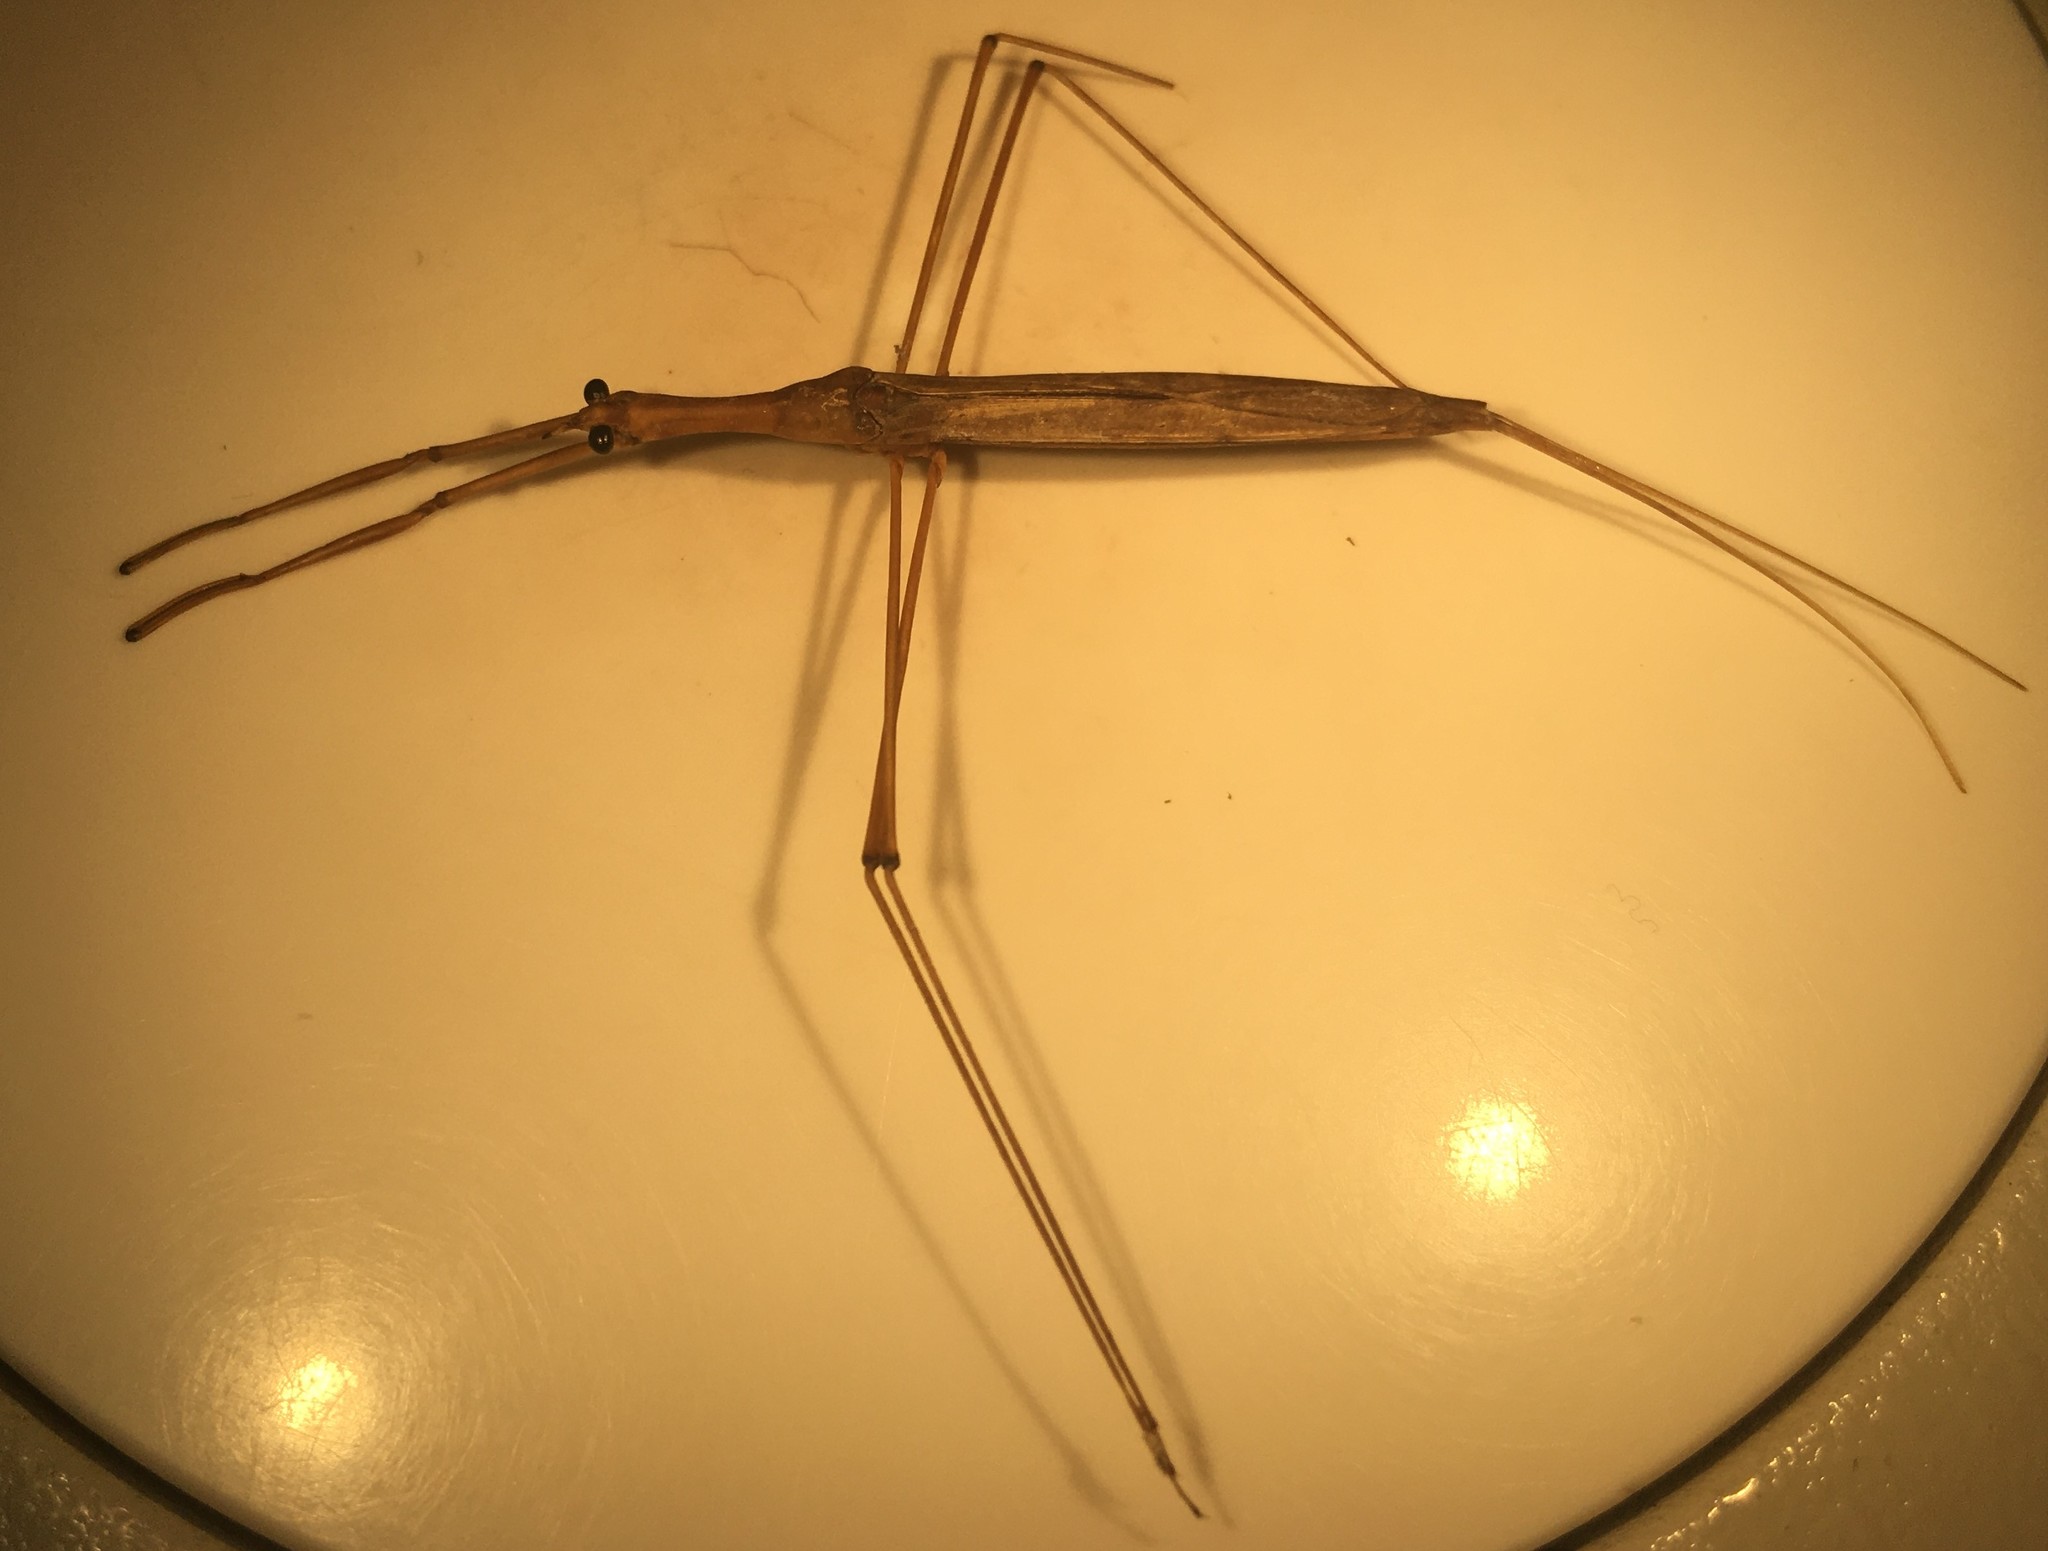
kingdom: Animalia
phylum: Arthropoda
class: Insecta
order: Hemiptera
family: Nepidae
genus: Ranatra
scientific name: Ranatra nigra
